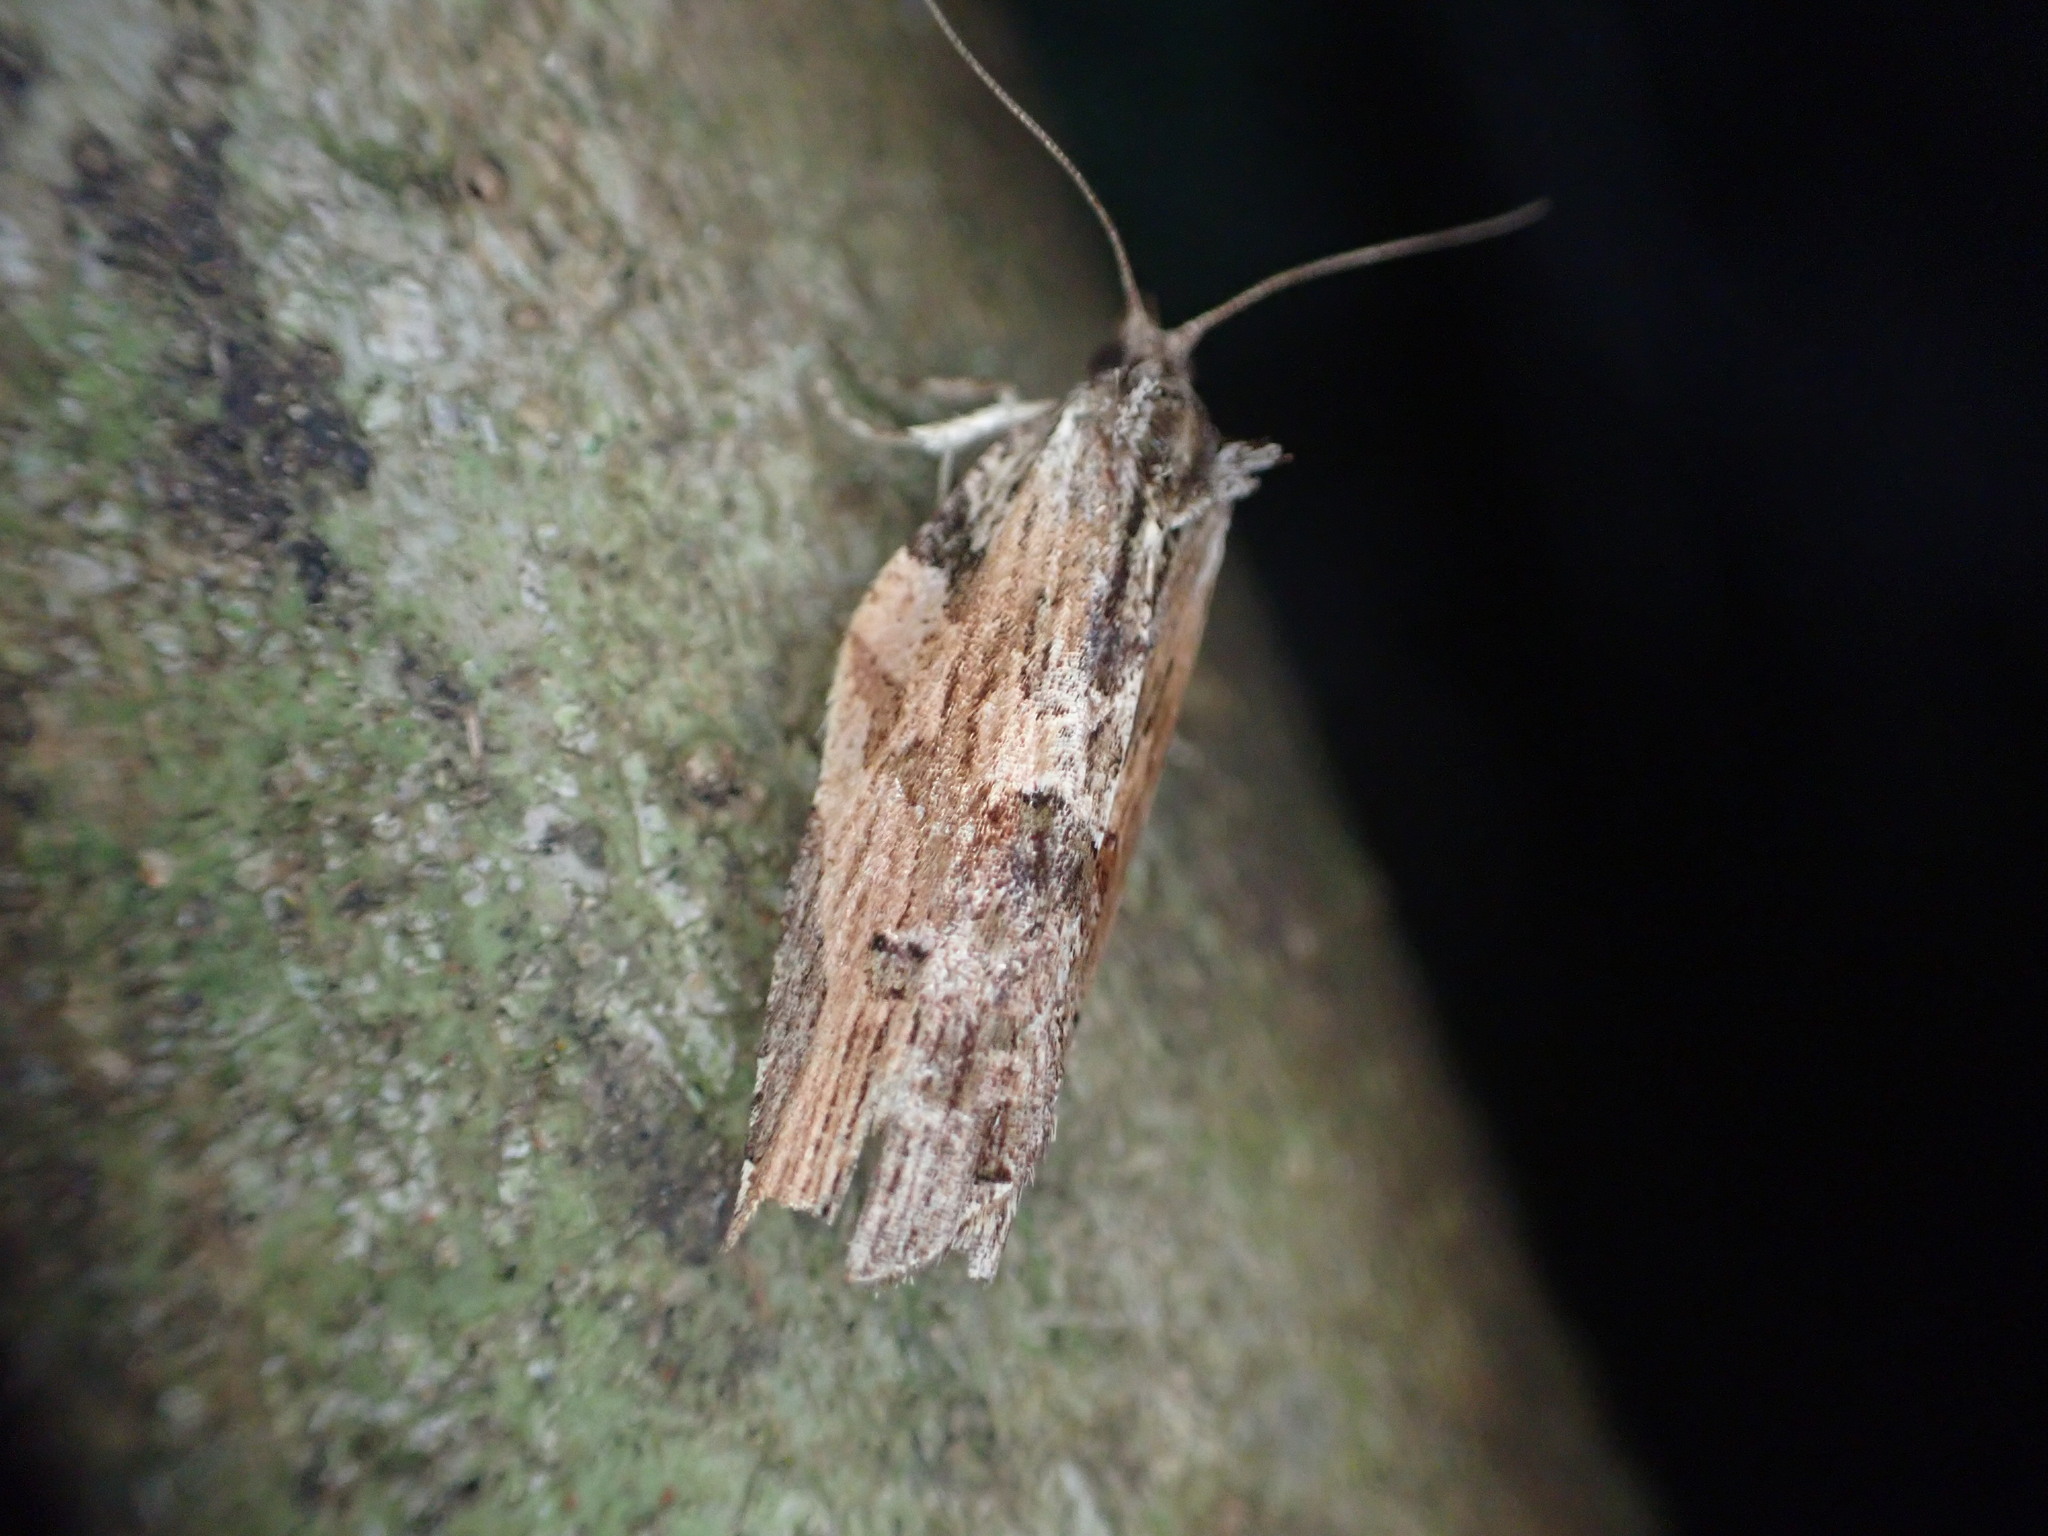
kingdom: Animalia
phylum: Arthropoda
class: Insecta
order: Lepidoptera
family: Tortricidae
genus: Epalxiphora
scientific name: Epalxiphora axenana
